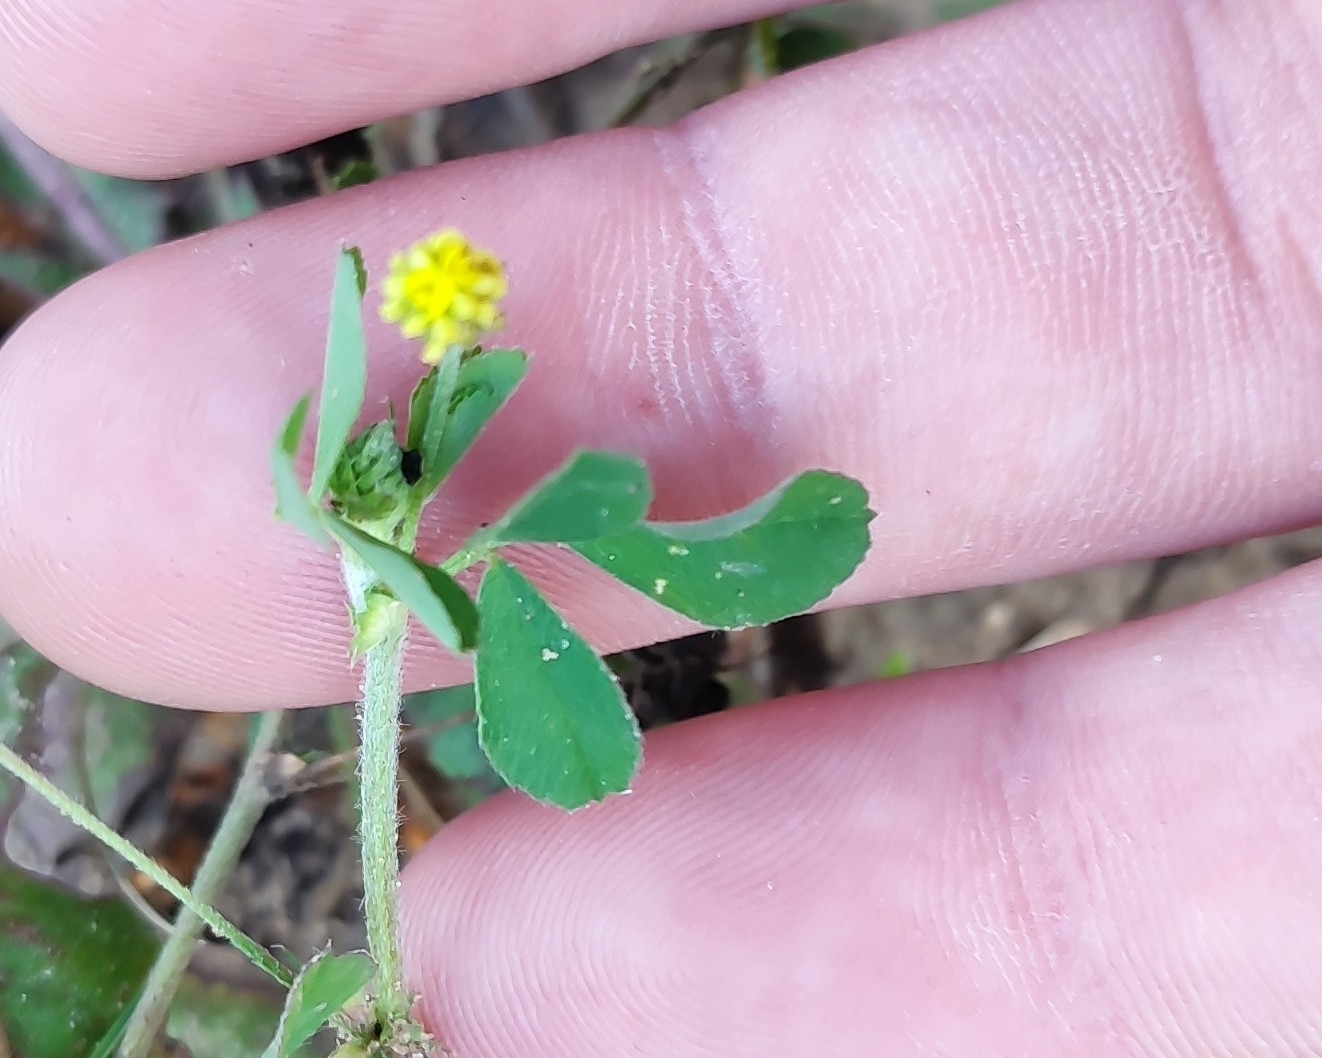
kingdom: Plantae
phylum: Tracheophyta
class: Magnoliopsida
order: Fabales
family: Fabaceae
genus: Medicago
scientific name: Medicago lupulina
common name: Black medick
